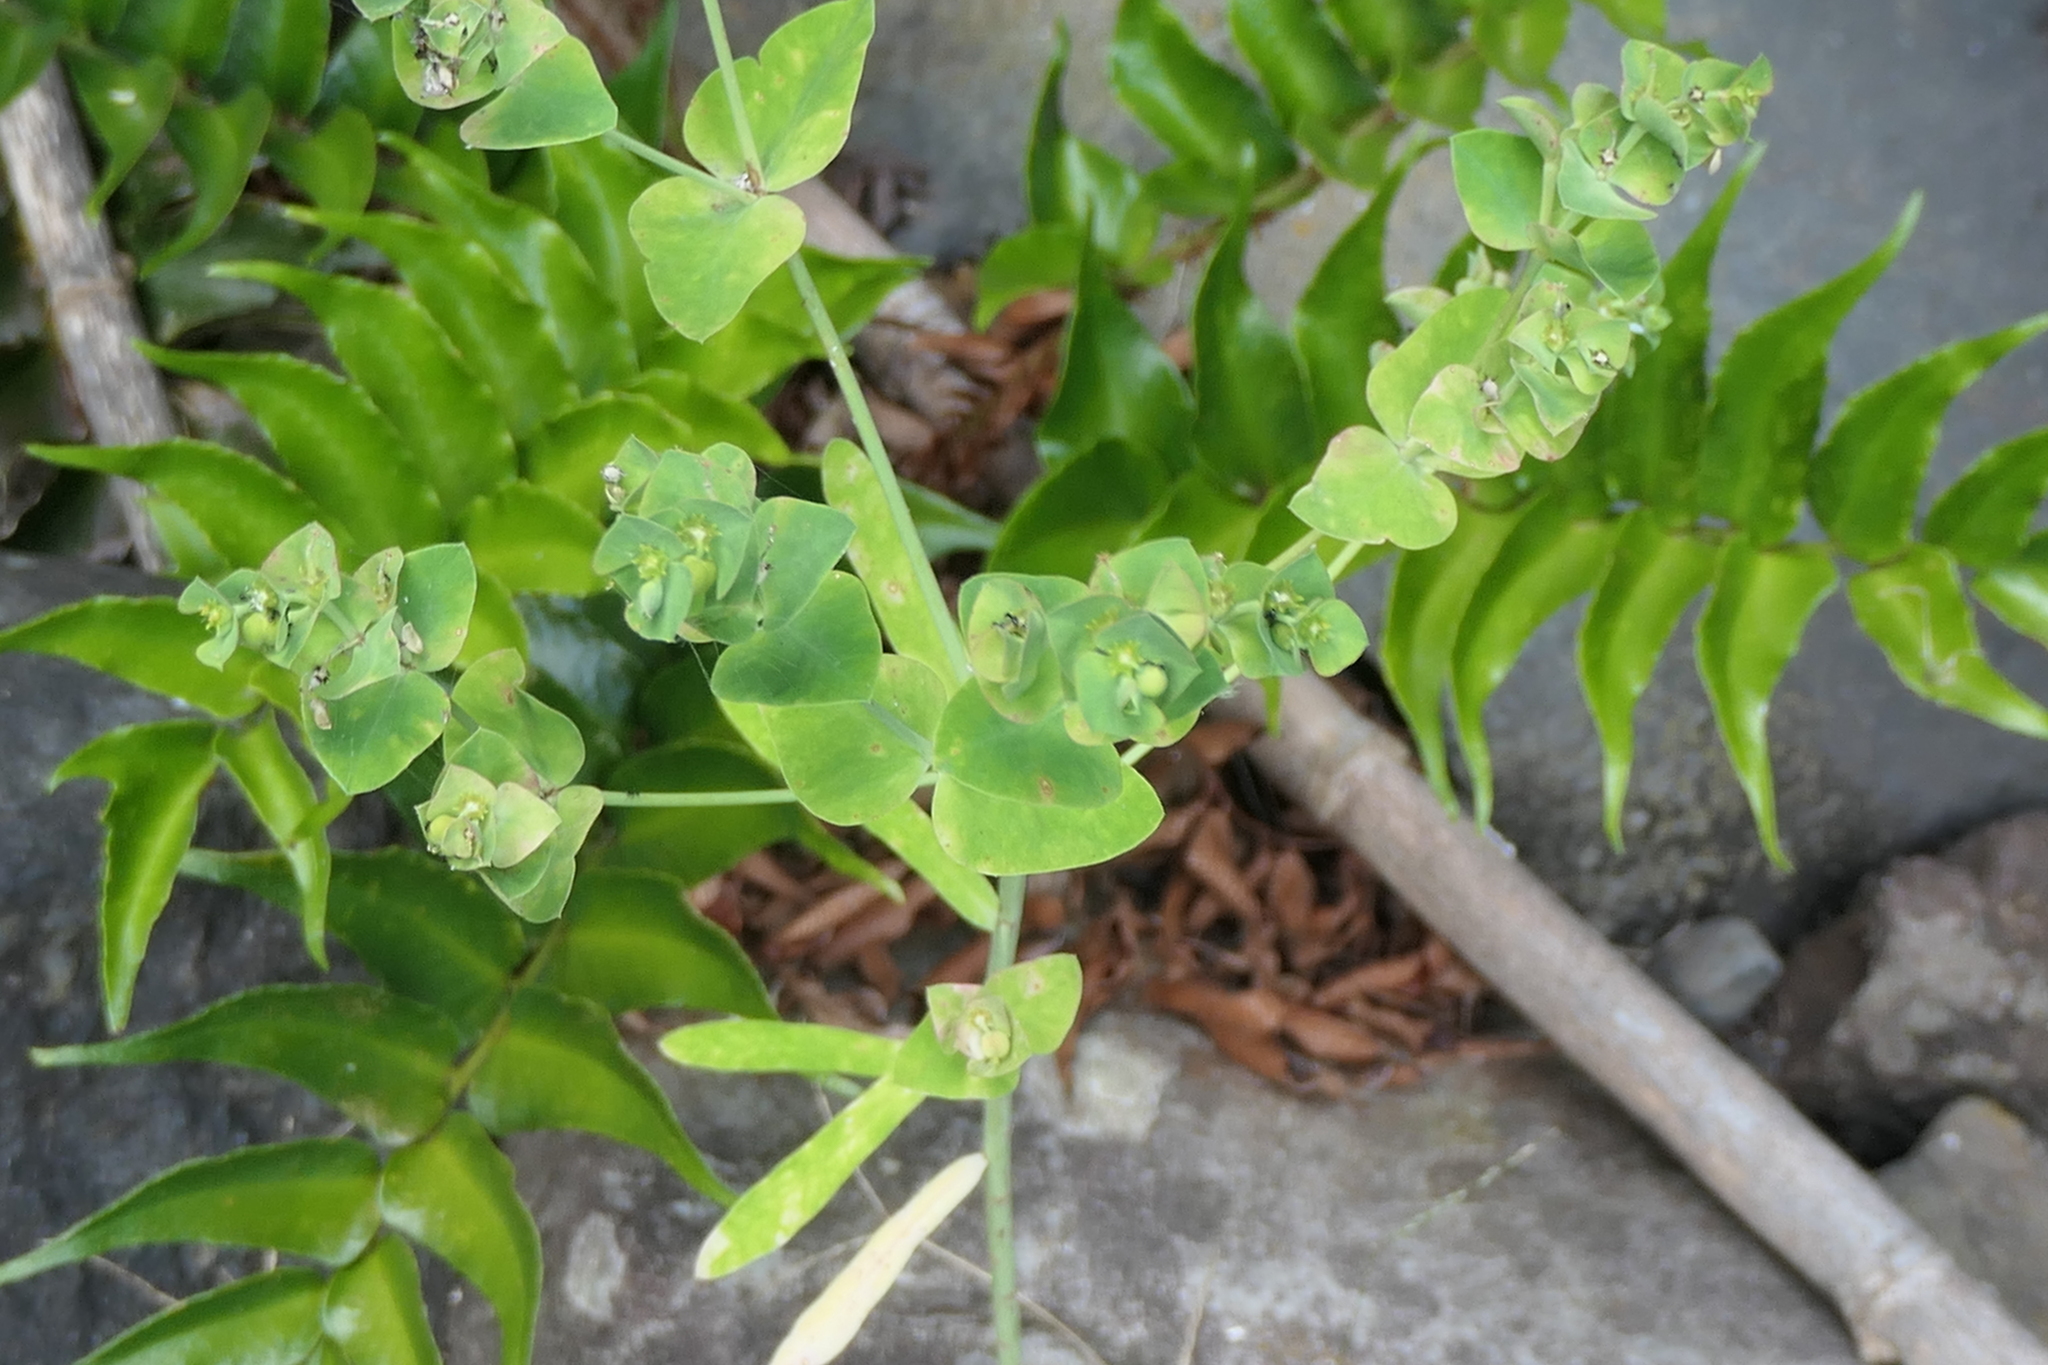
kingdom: Plantae
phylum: Tracheophyta
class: Magnoliopsida
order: Malpighiales
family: Euphorbiaceae
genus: Euphorbia
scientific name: Euphorbia azorica
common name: Erva-leitera
